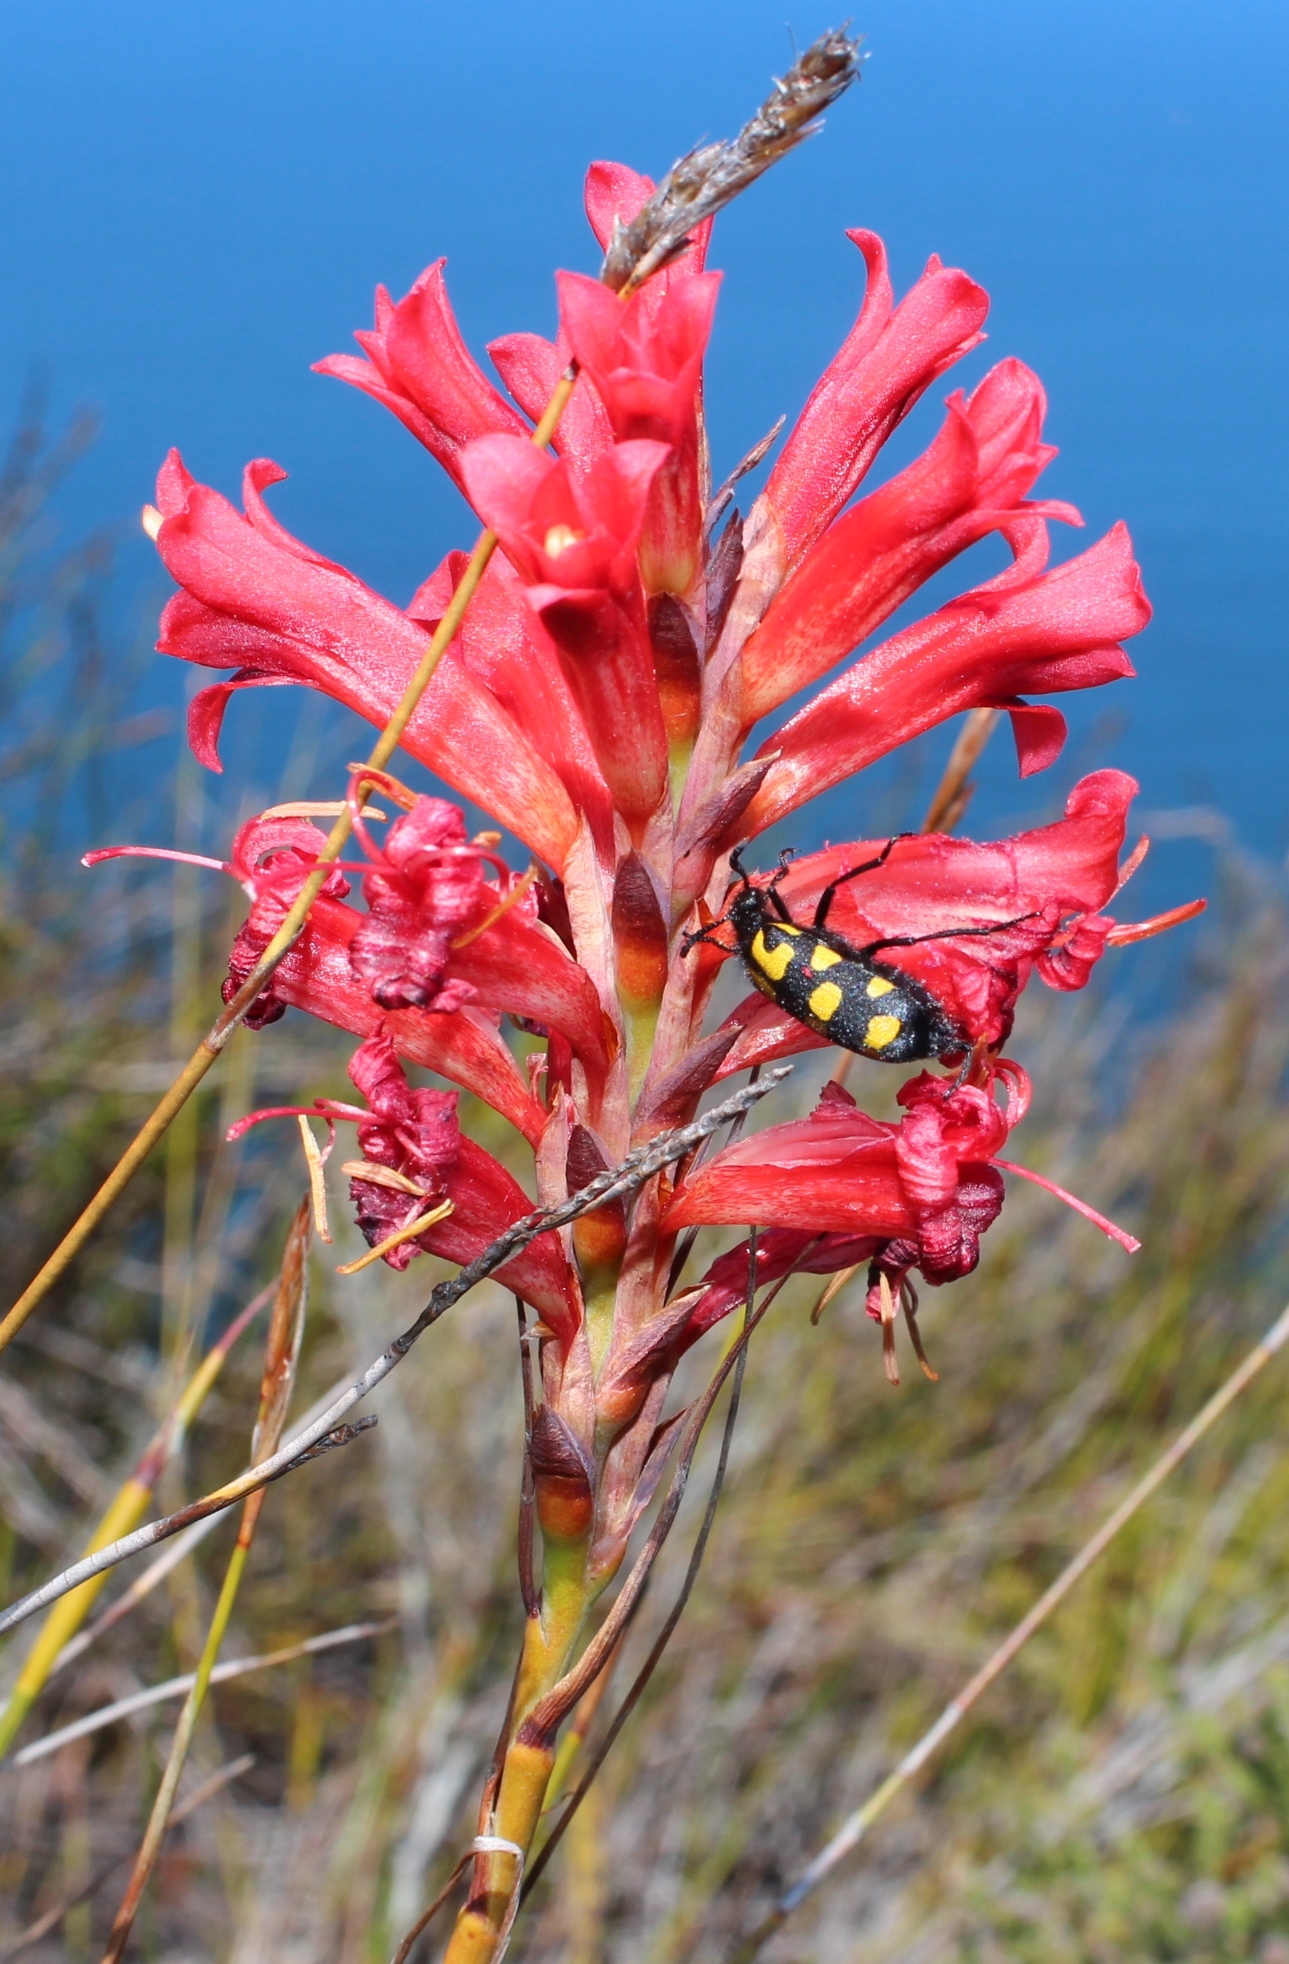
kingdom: Plantae
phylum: Tracheophyta
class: Liliopsida
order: Asparagales
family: Iridaceae
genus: Tritoniopsis
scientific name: Tritoniopsis triticea
